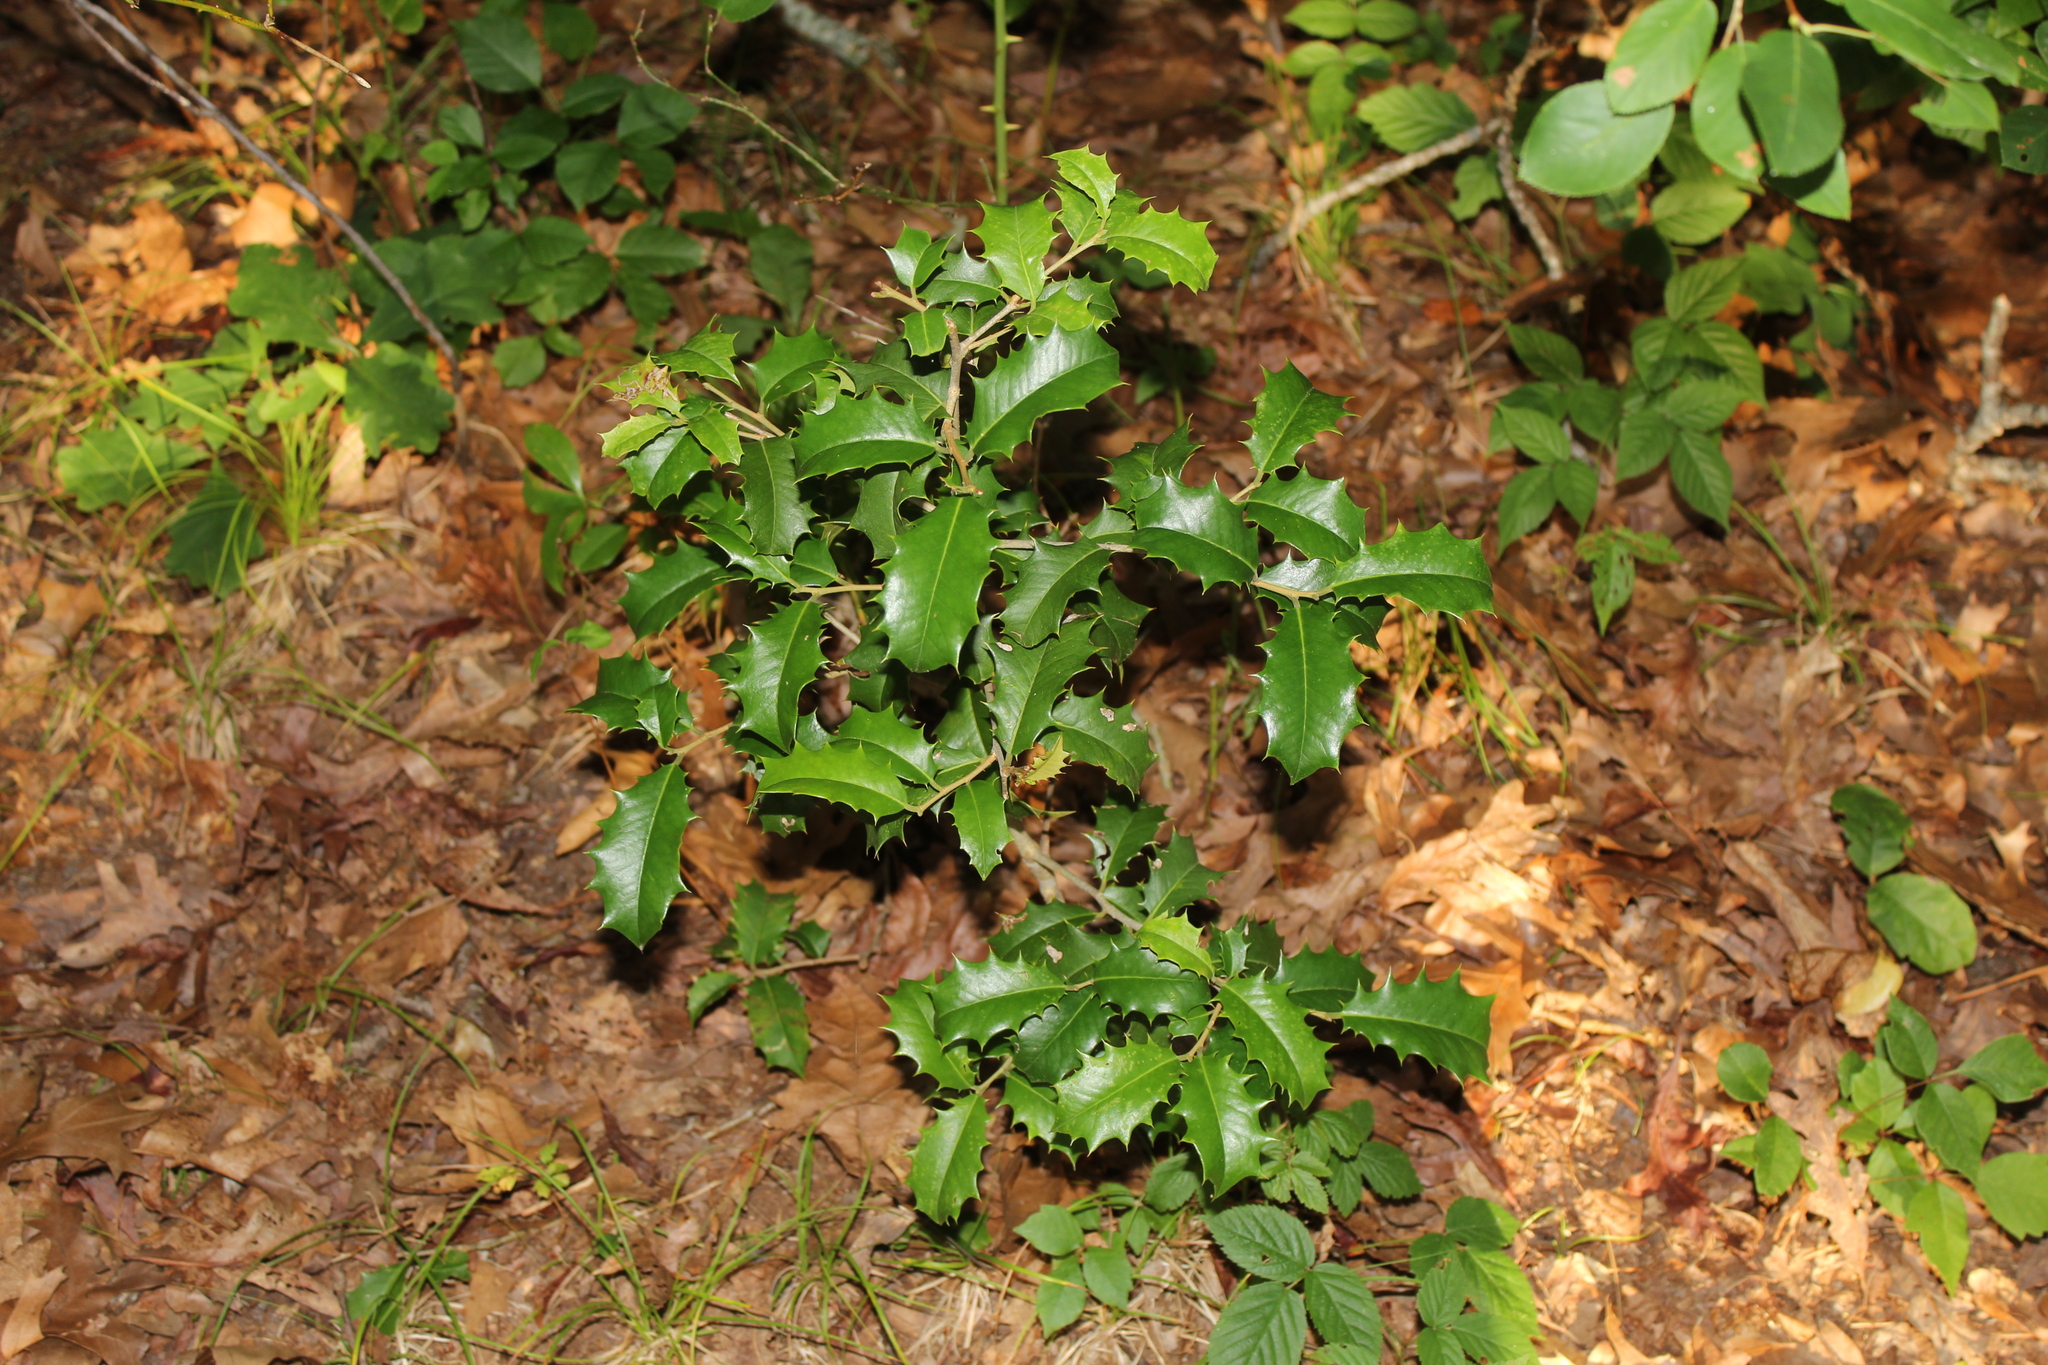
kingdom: Plantae
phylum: Tracheophyta
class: Magnoliopsida
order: Aquifoliales
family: Aquifoliaceae
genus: Ilex
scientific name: Ilex opaca
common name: American holly
